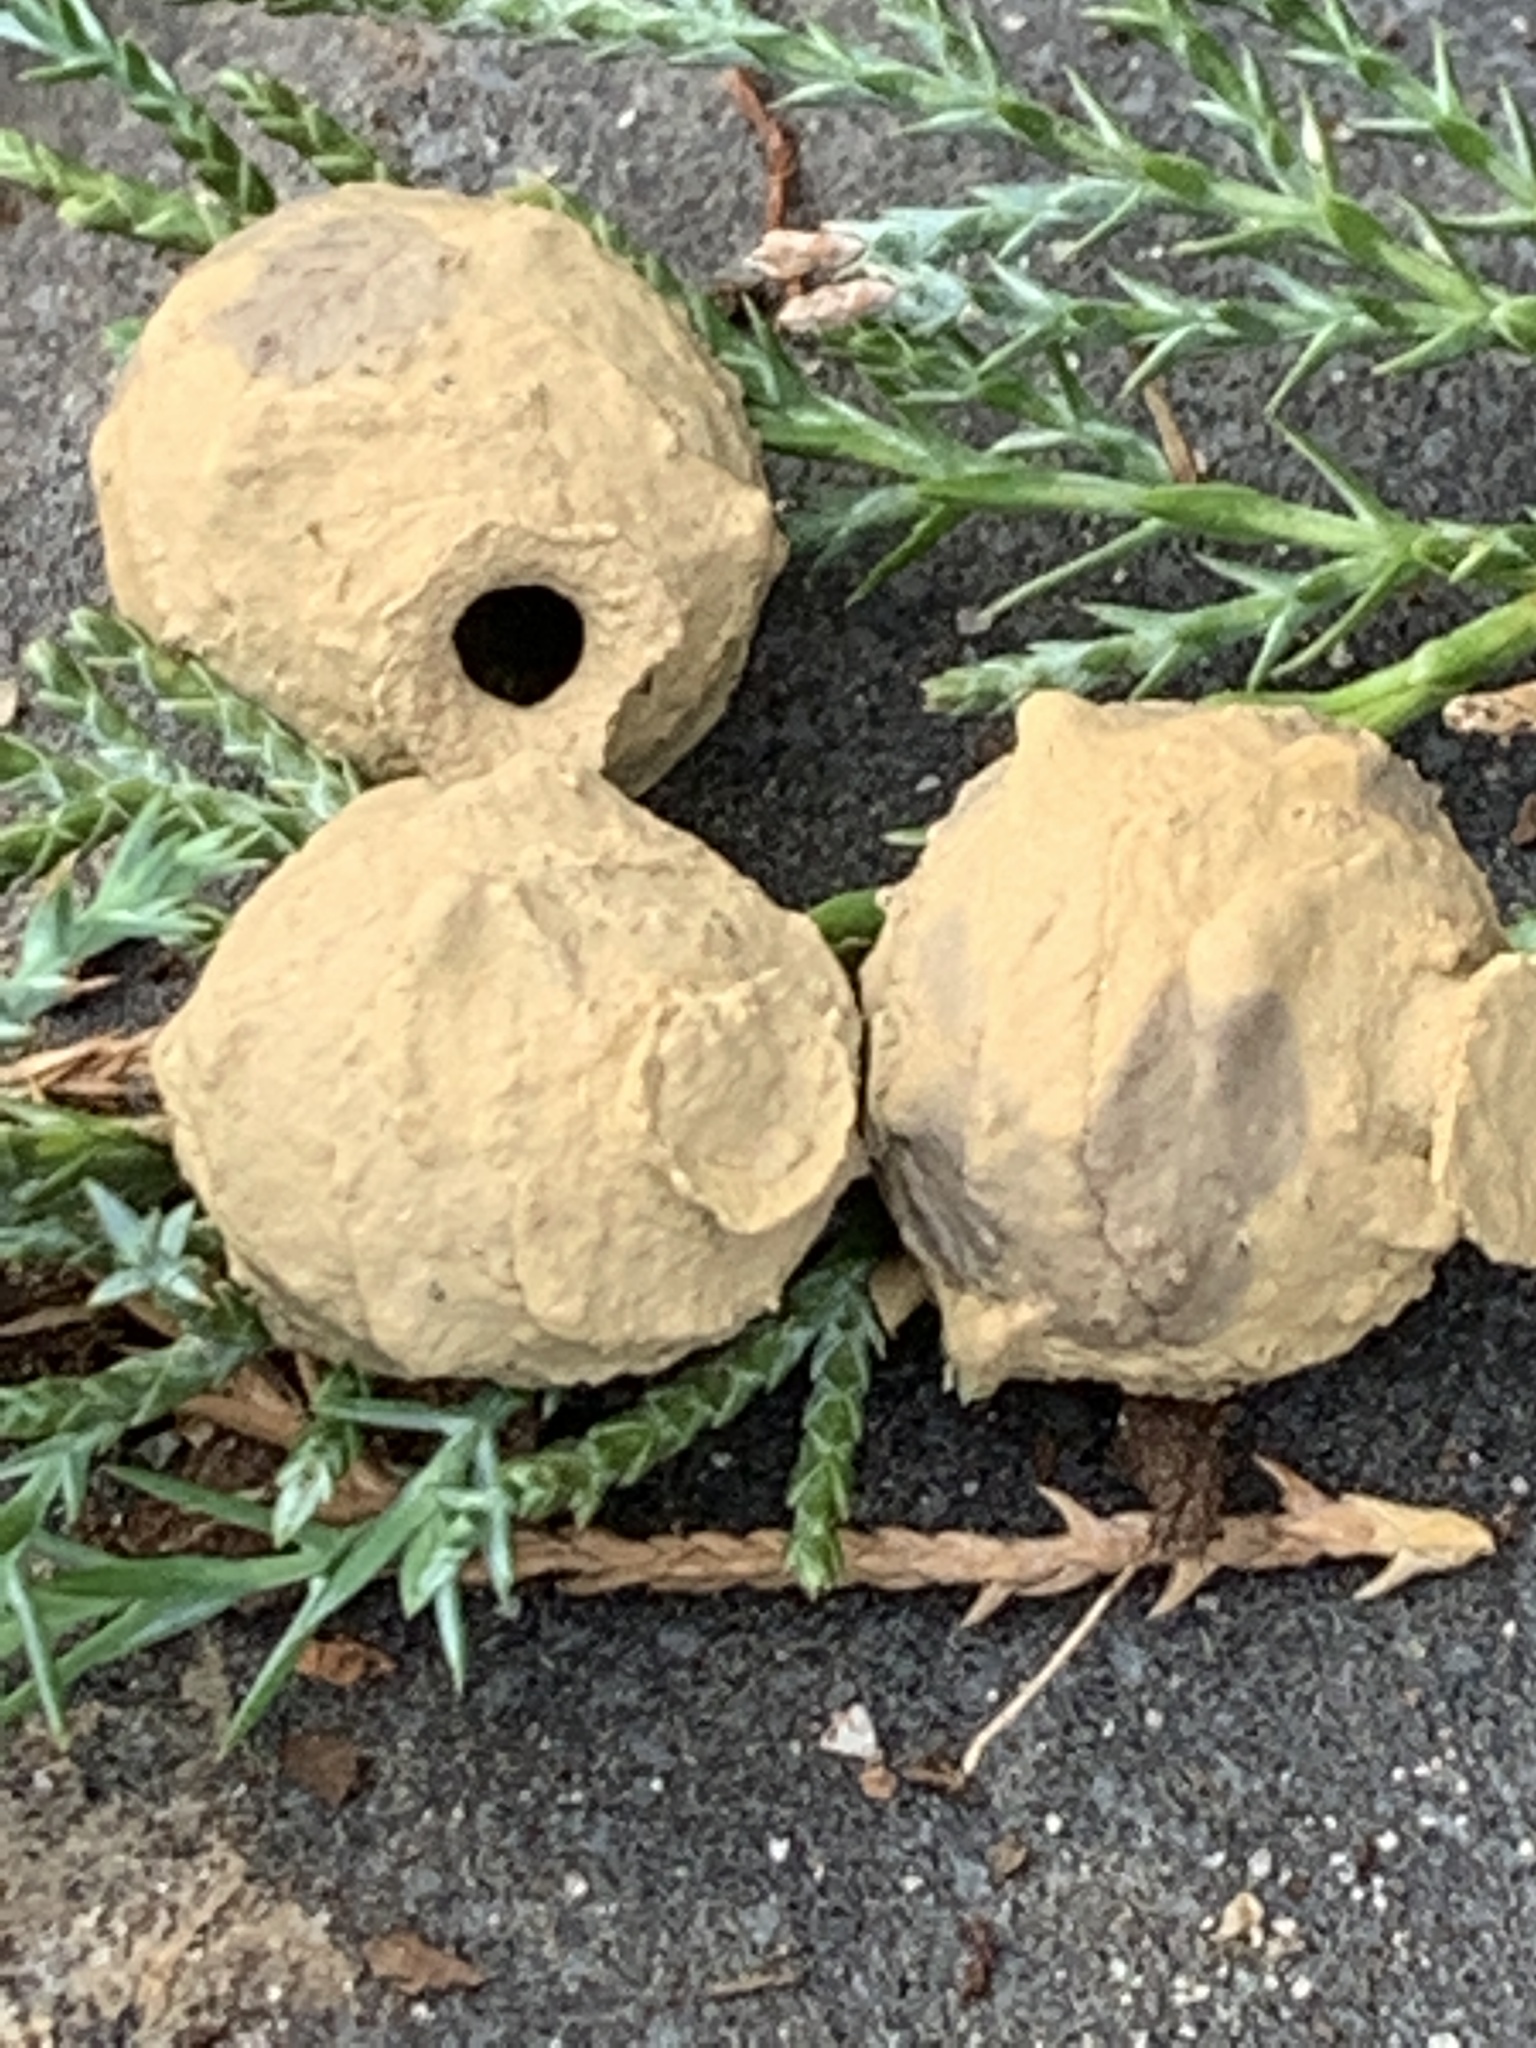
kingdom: Animalia
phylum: Arthropoda
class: Insecta
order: Hymenoptera
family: Vespidae
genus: Eumenes
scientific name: Eumenes
